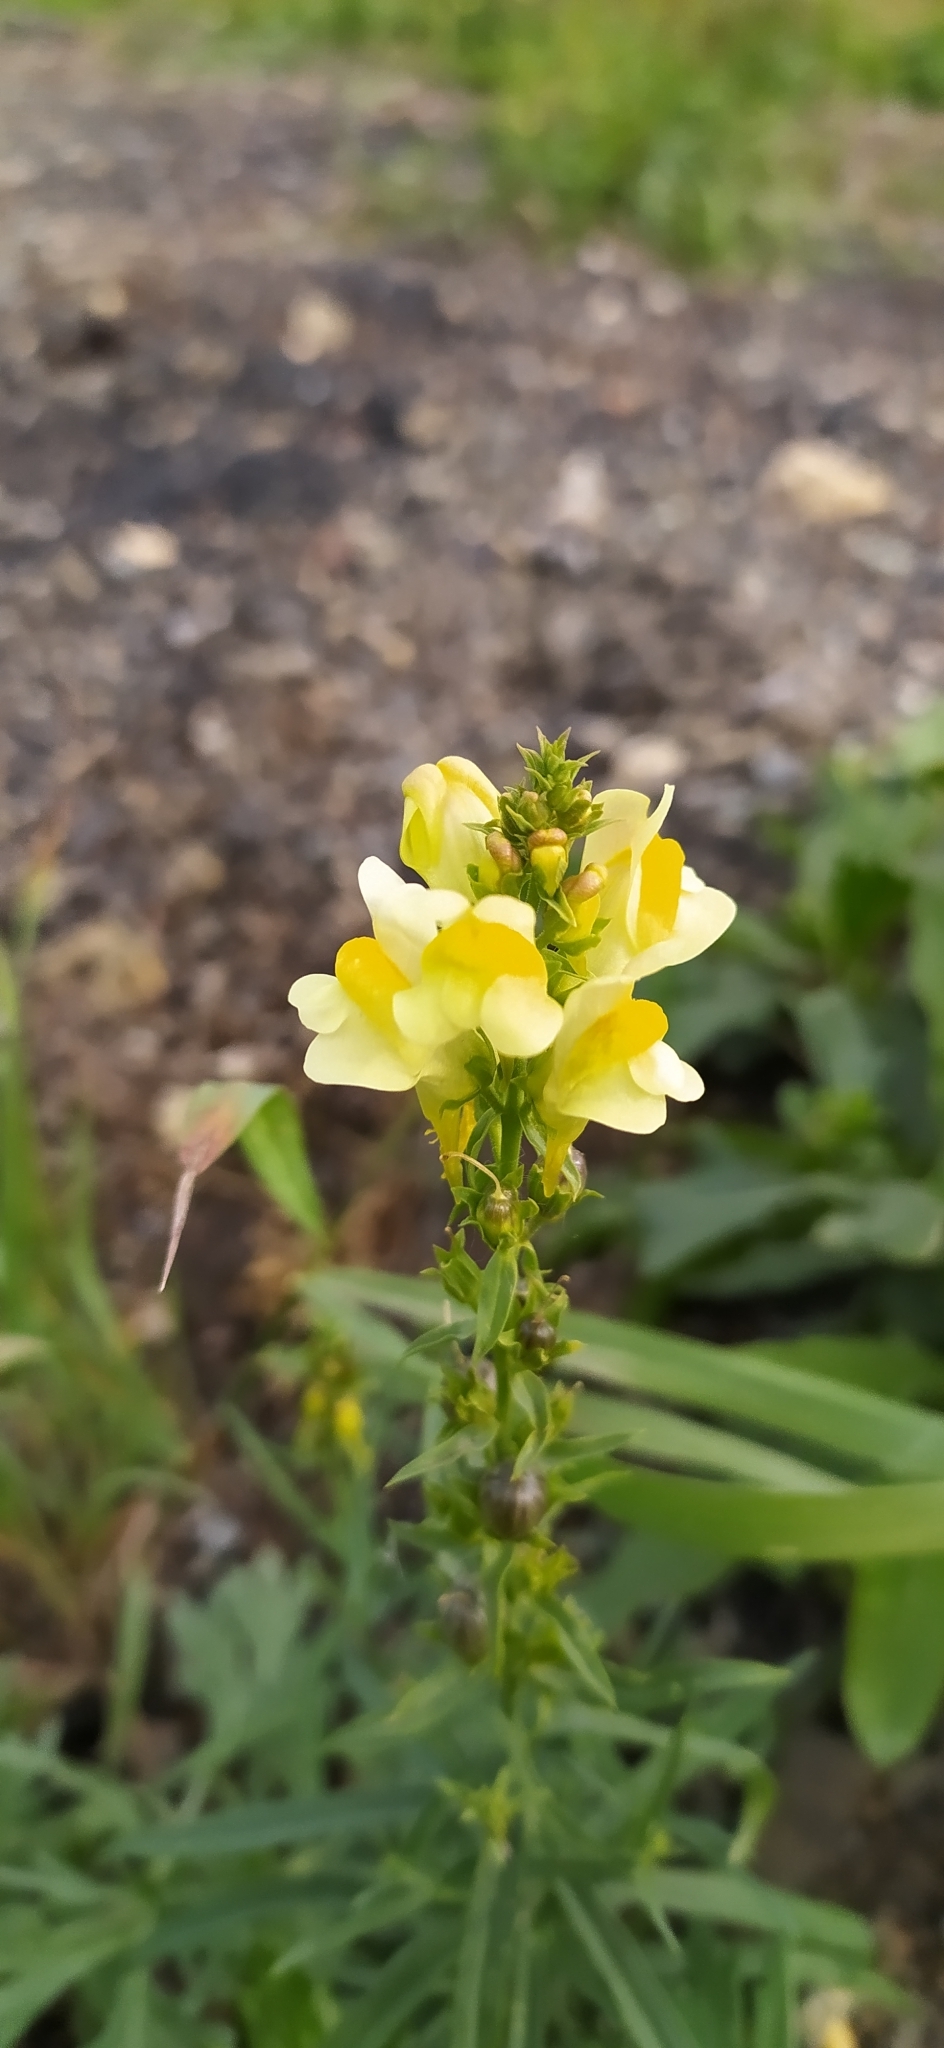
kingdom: Plantae
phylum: Tracheophyta
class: Magnoliopsida
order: Lamiales
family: Plantaginaceae
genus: Linaria
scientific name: Linaria vulgaris
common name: Butter and eggs
